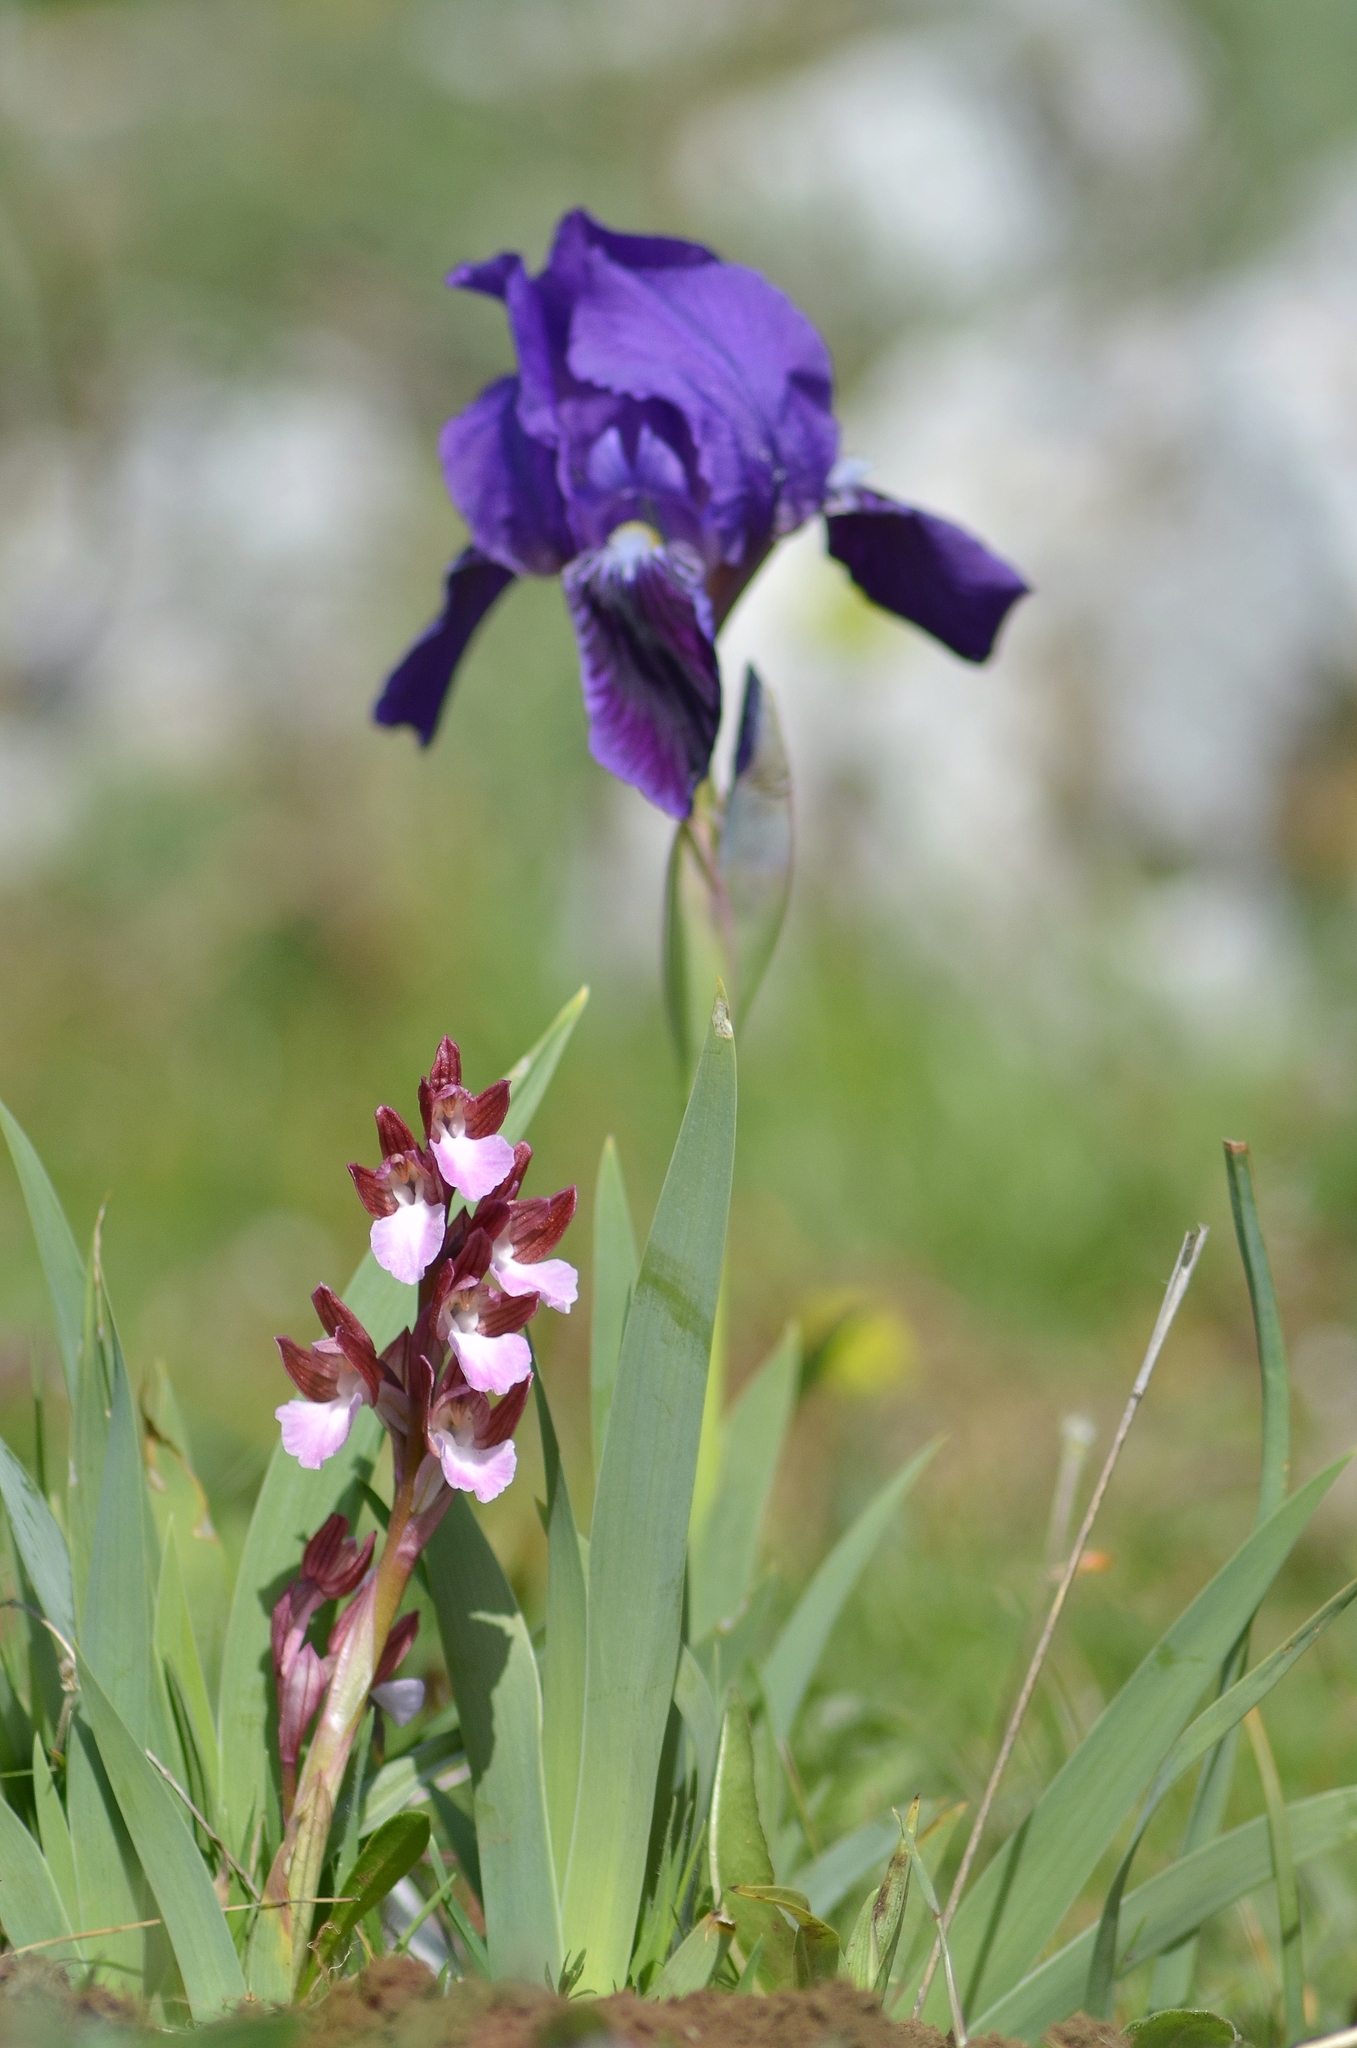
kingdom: Plantae
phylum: Tracheophyta
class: Liliopsida
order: Asparagales
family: Orchidaceae
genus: Anacamptis
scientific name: Anacamptis papilionacea
